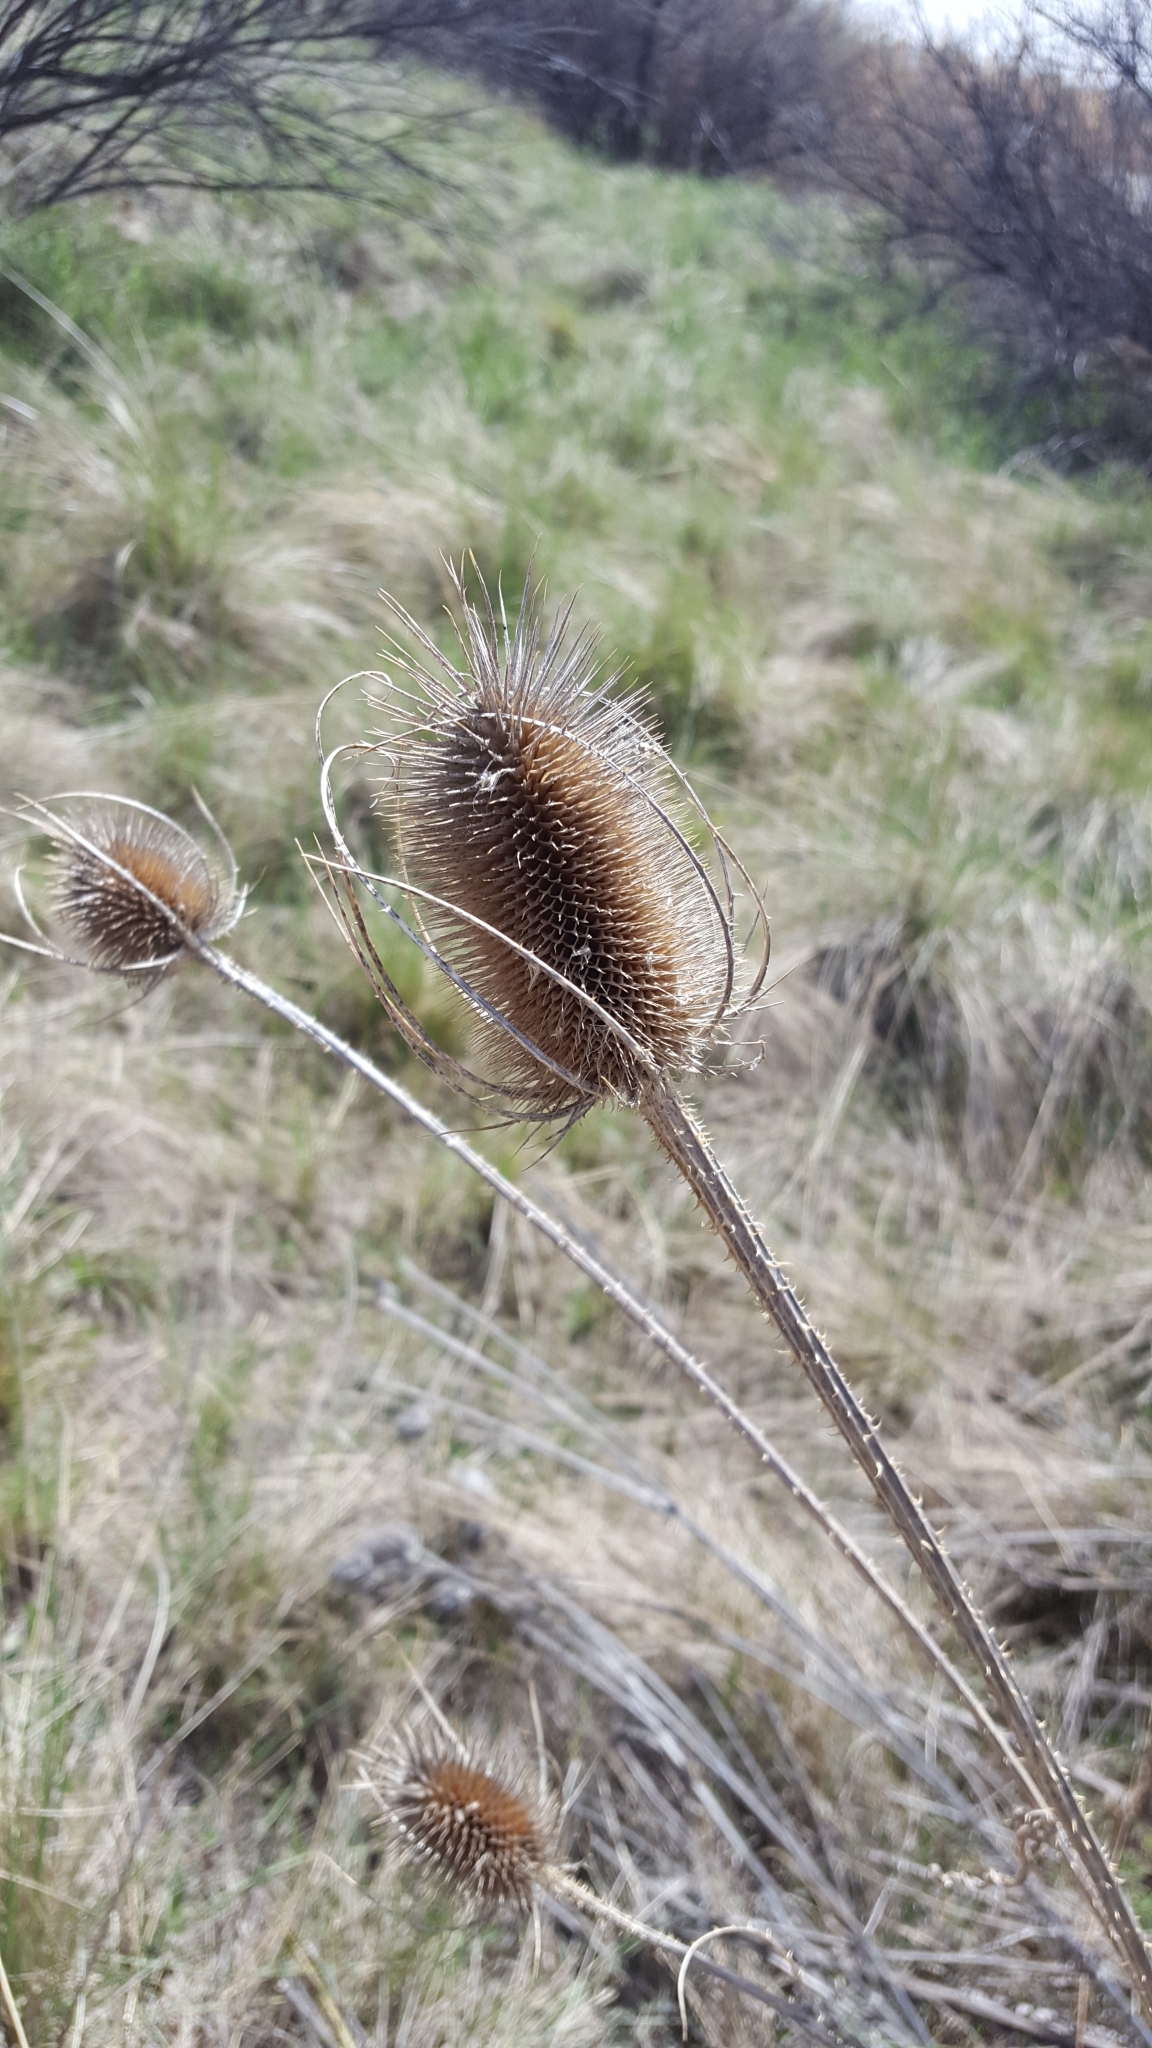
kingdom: Plantae
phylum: Tracheophyta
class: Magnoliopsida
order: Dipsacales
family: Caprifoliaceae
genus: Dipsacus
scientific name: Dipsacus fullonum
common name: Teasel
